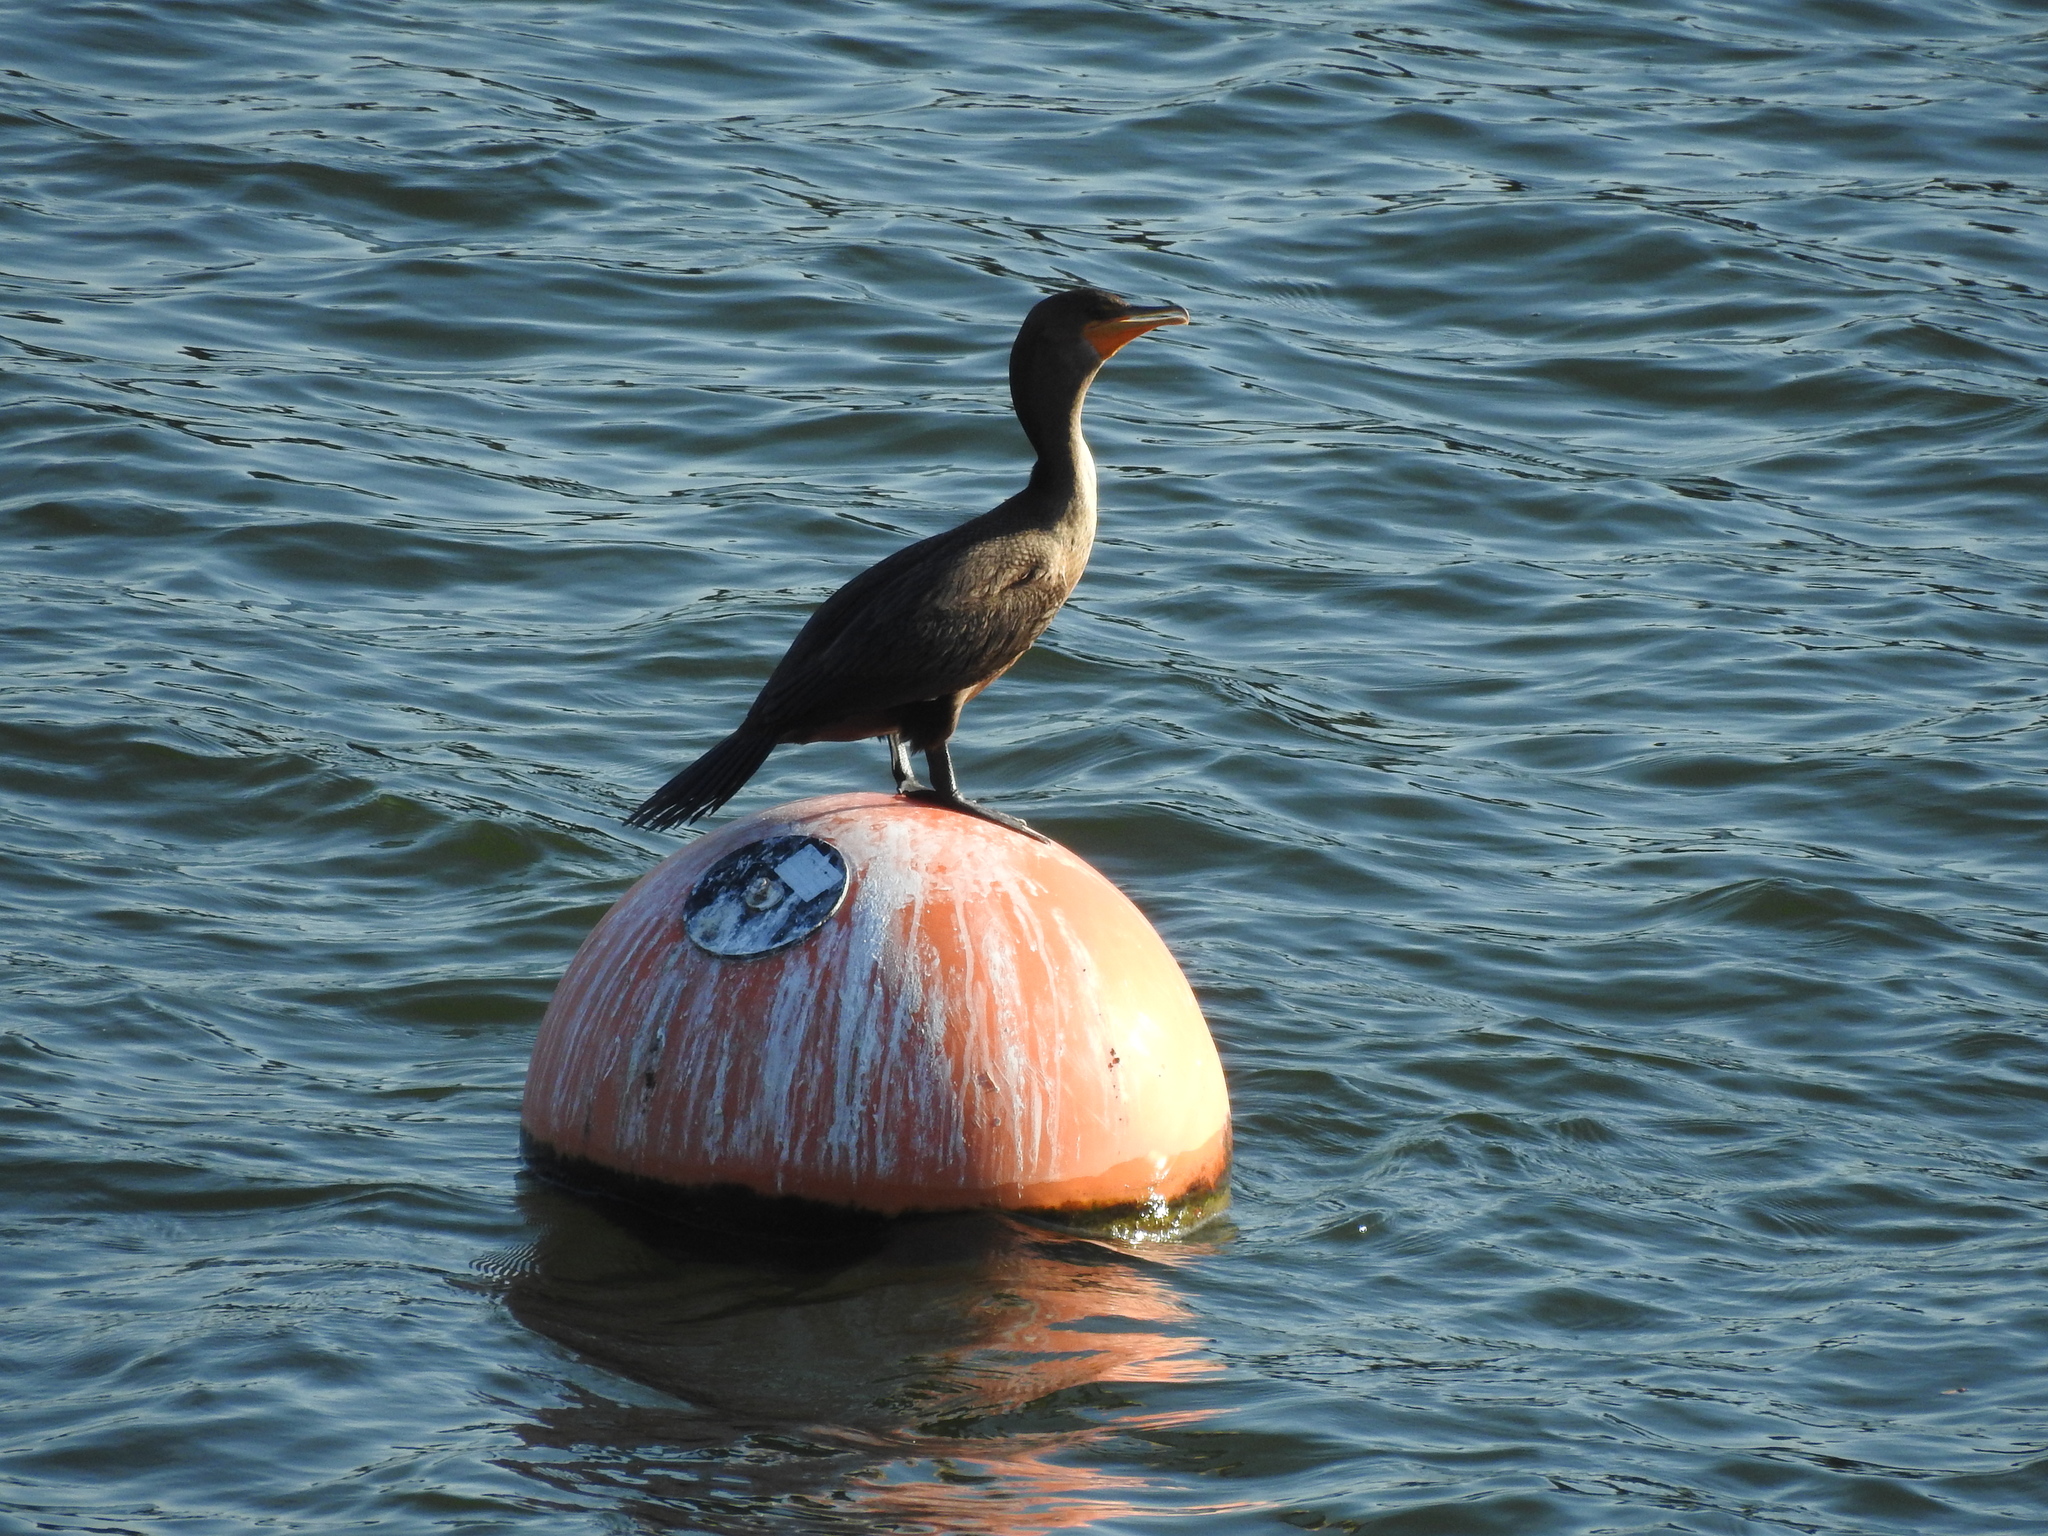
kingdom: Animalia
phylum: Chordata
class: Aves
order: Suliformes
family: Phalacrocoracidae
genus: Phalacrocorax
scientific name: Phalacrocorax auritus
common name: Double-crested cormorant
